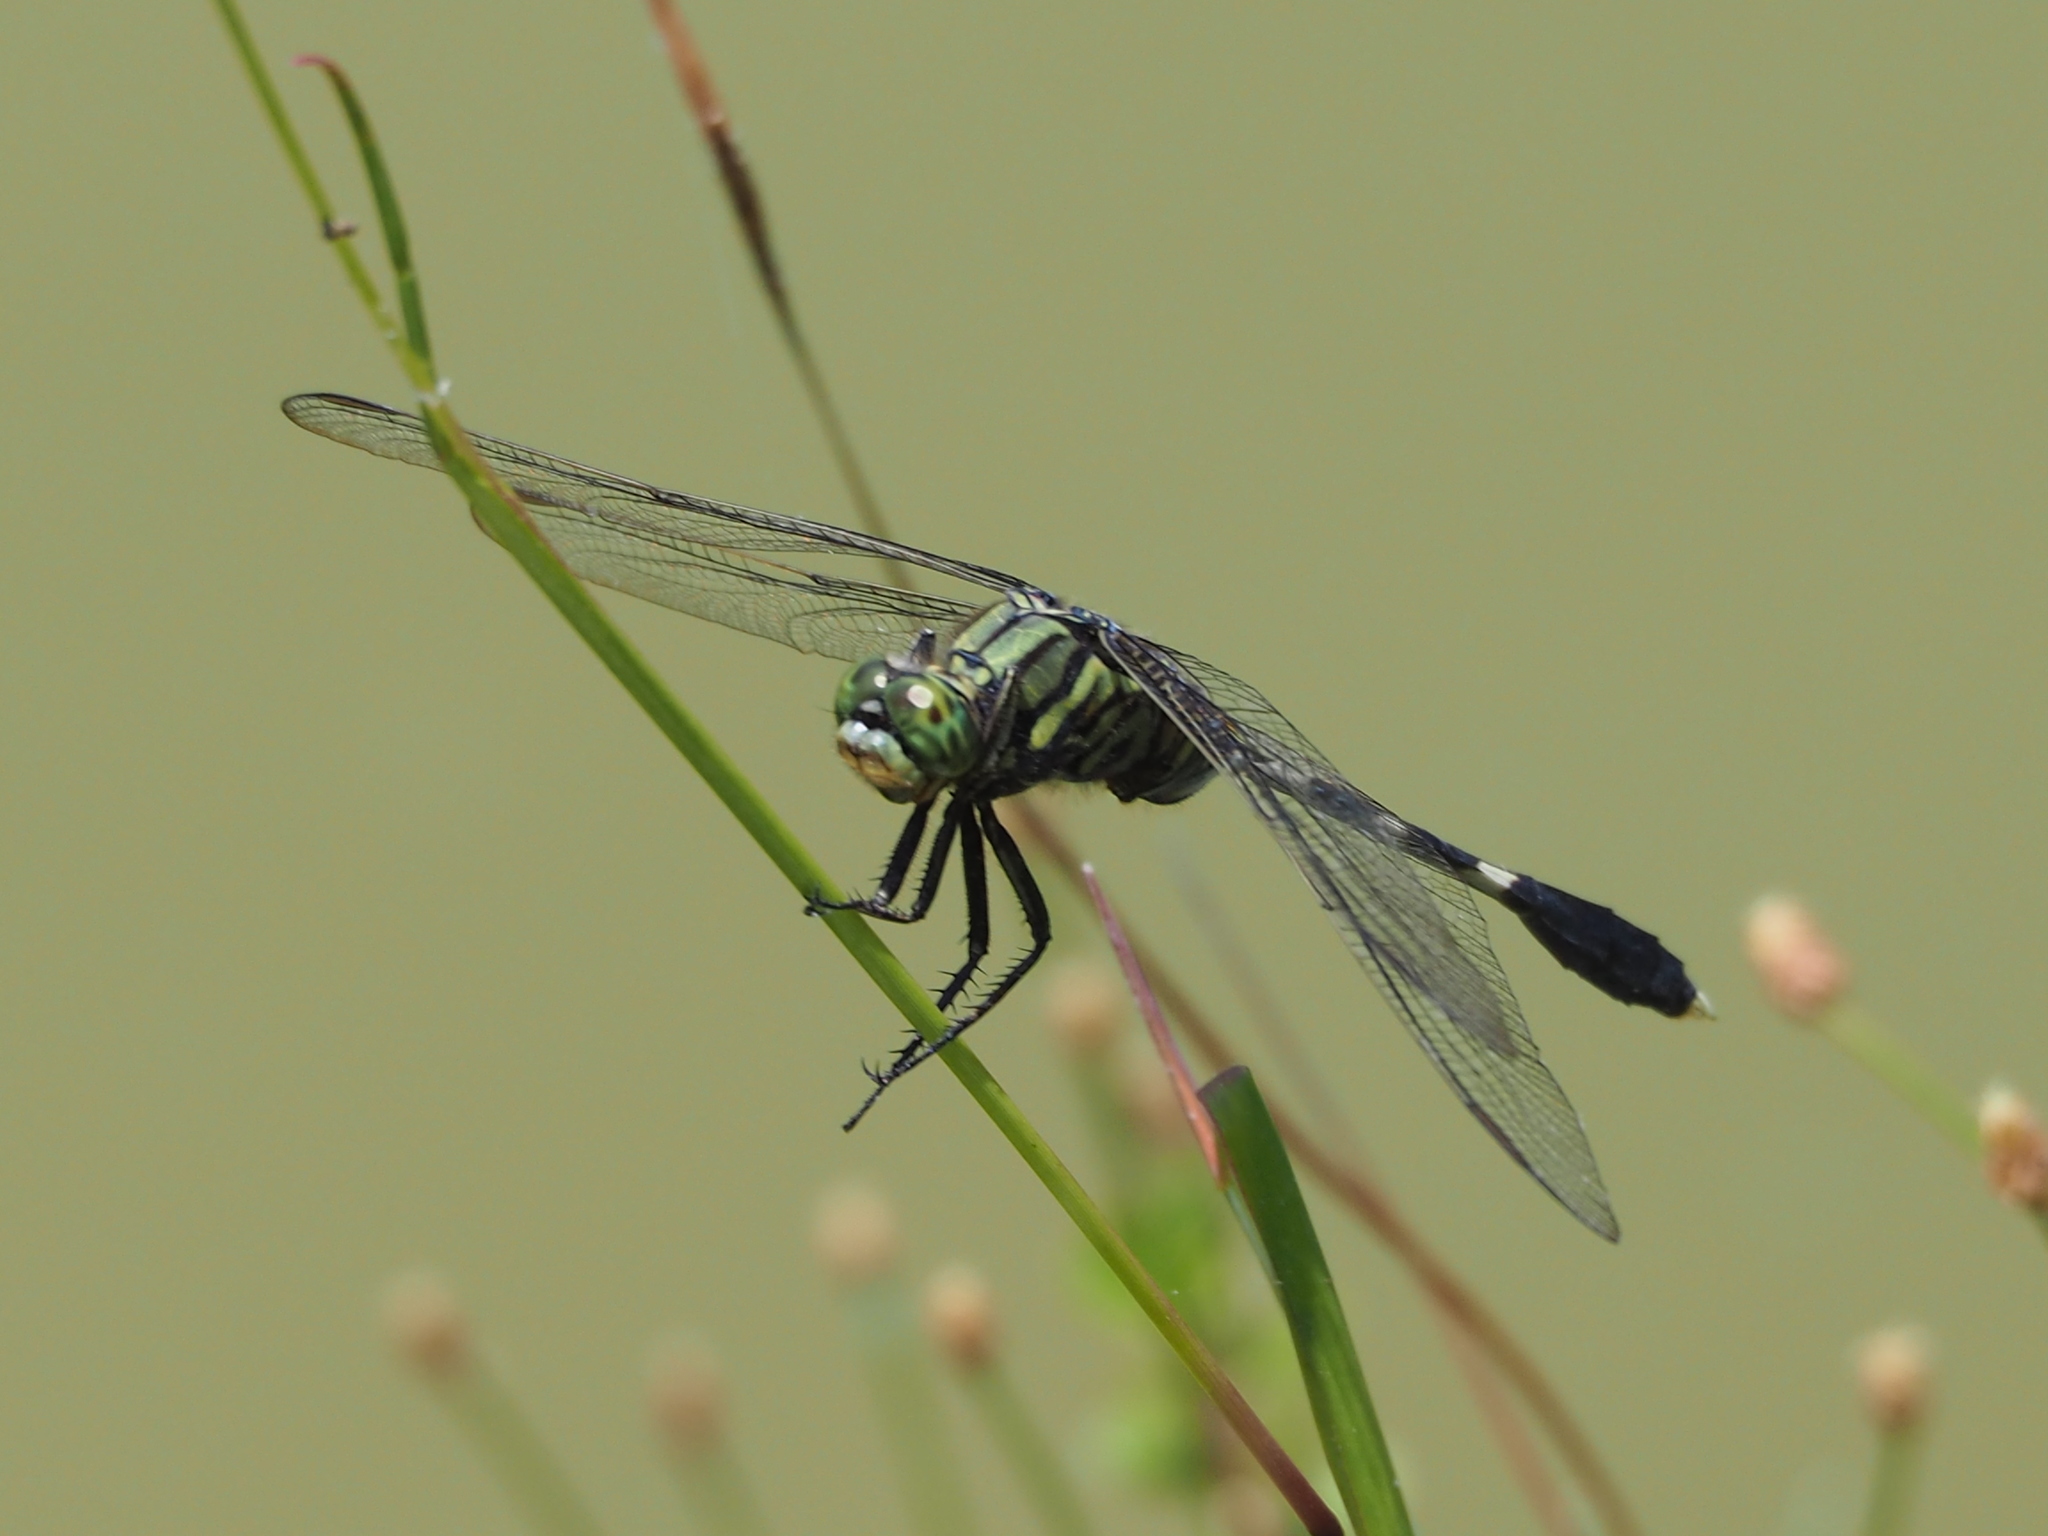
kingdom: Animalia
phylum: Arthropoda
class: Insecta
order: Odonata
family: Libellulidae
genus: Orthetrum
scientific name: Orthetrum sabina
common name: Slender skimmer
